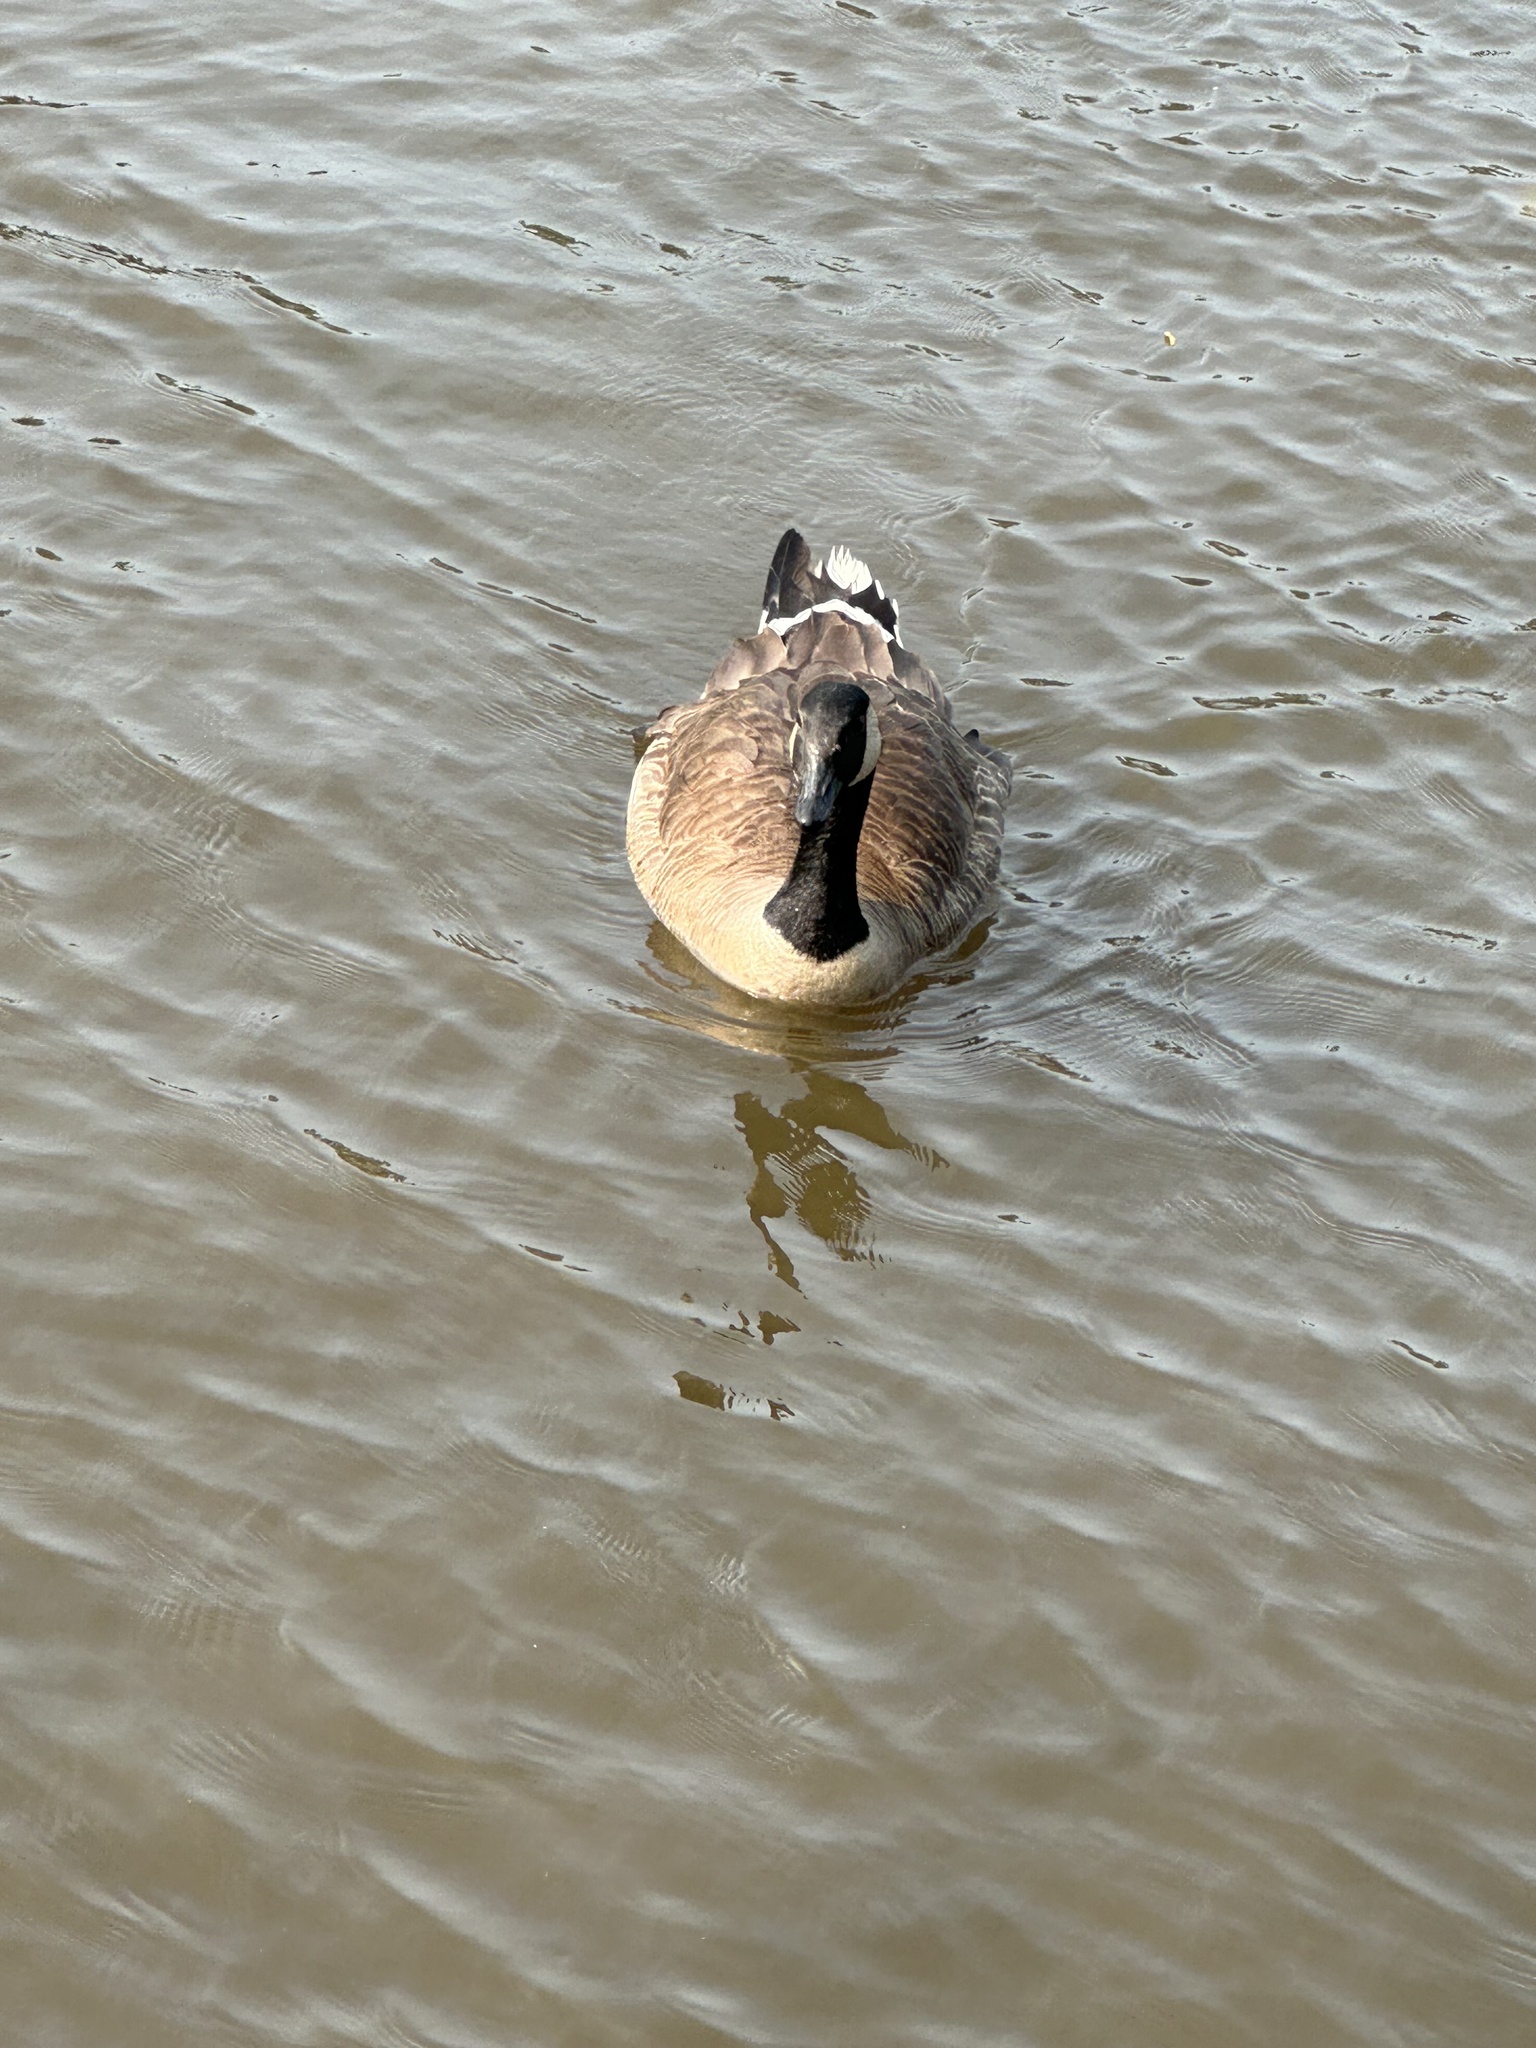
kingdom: Animalia
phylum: Chordata
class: Aves
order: Anseriformes
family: Anatidae
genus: Branta
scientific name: Branta canadensis
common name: Canada goose
